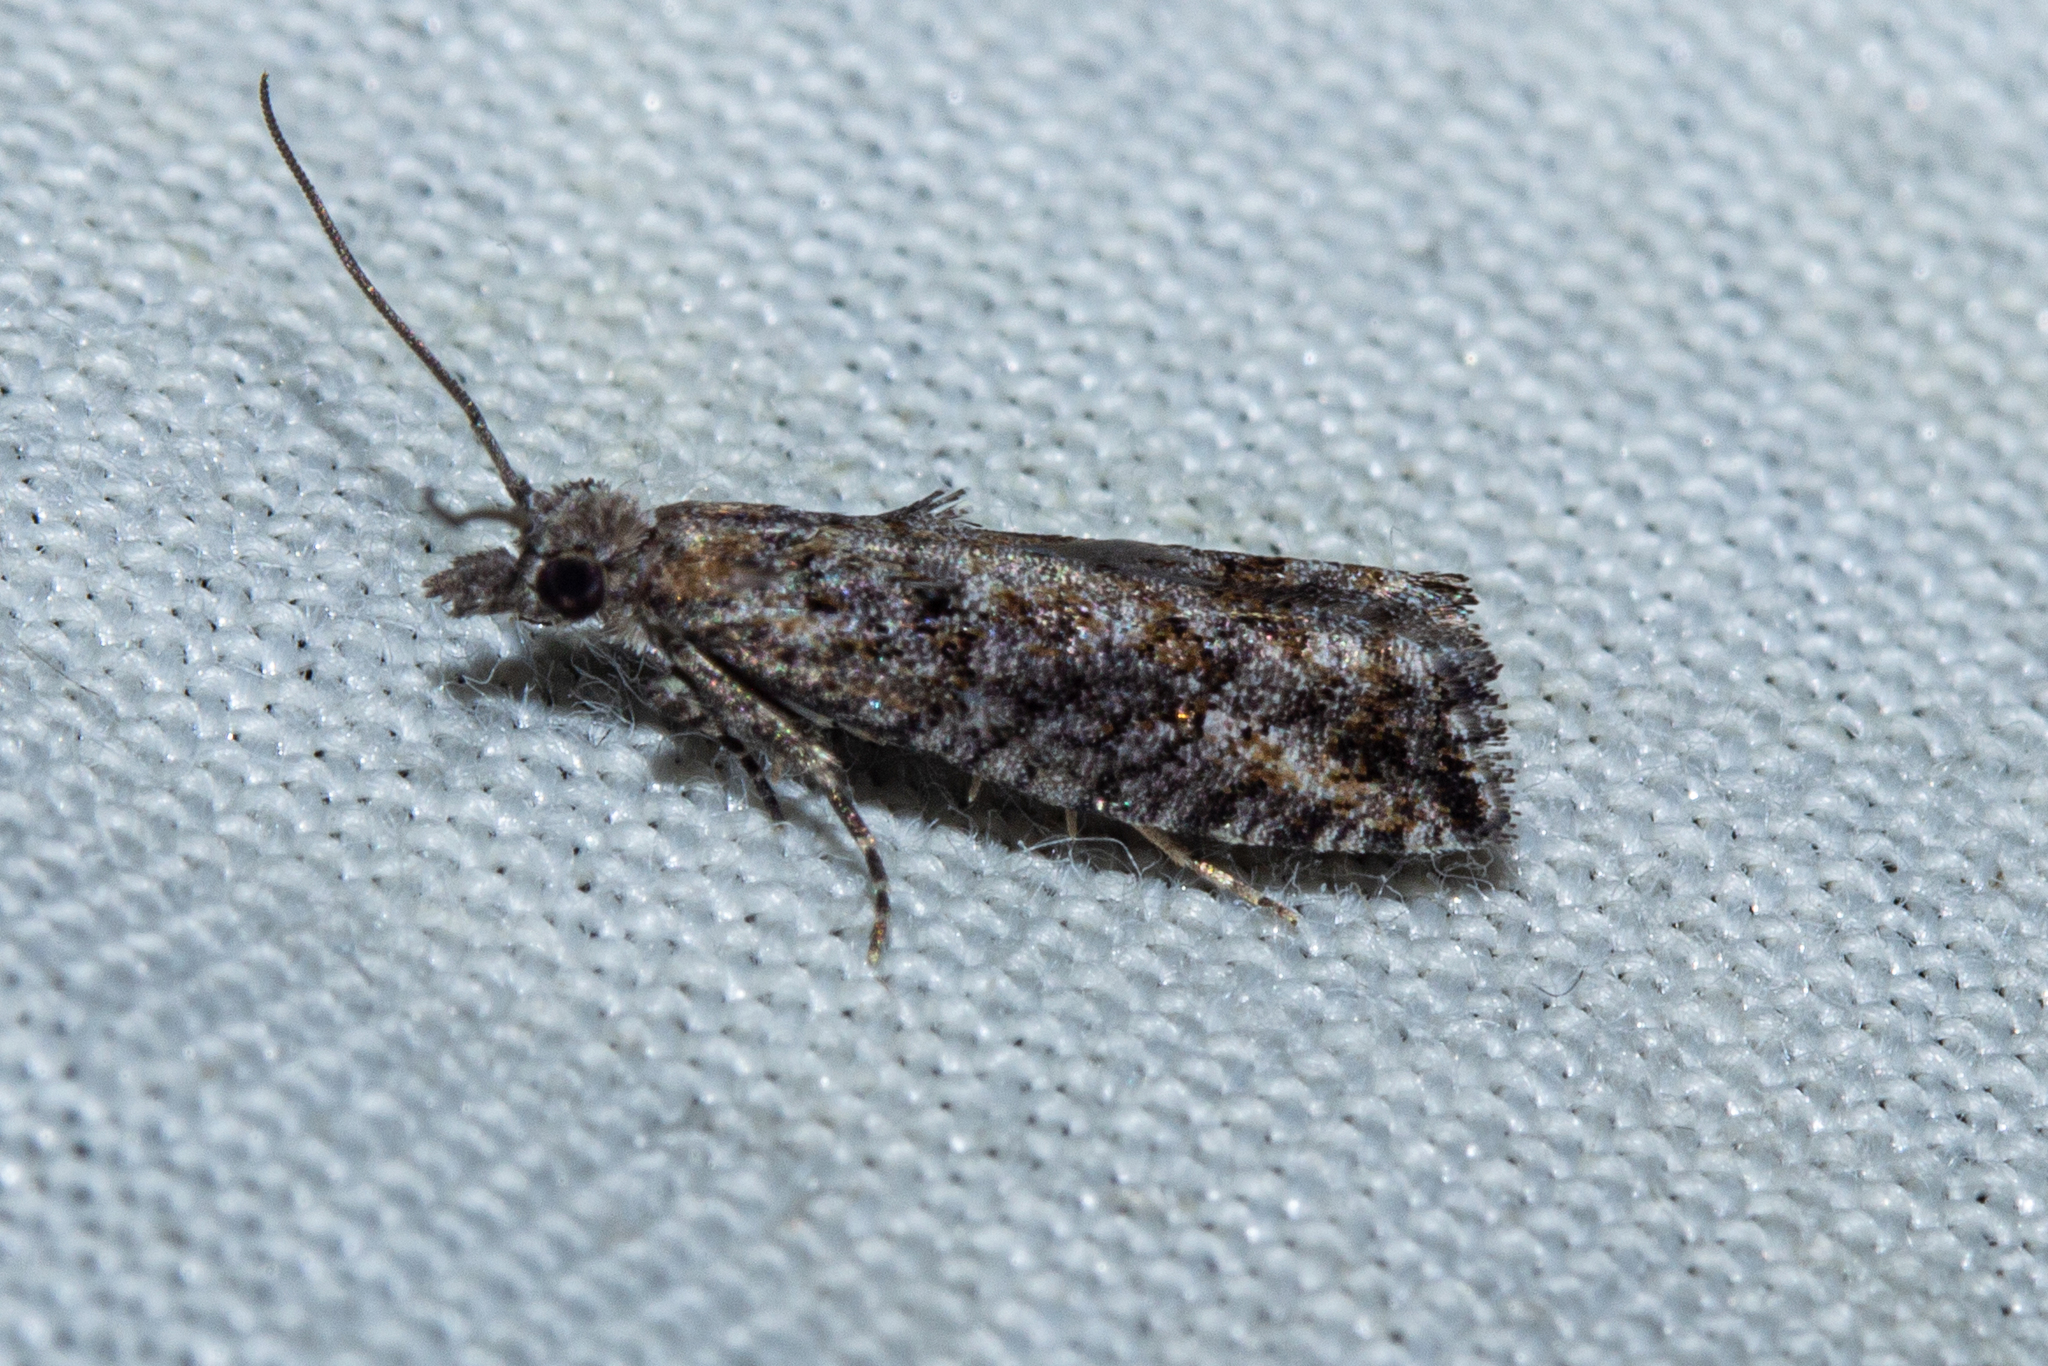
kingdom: Animalia
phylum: Arthropoda
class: Insecta
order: Lepidoptera
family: Tortricidae
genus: Strepsicrates
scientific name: Strepsicrates ejectana
